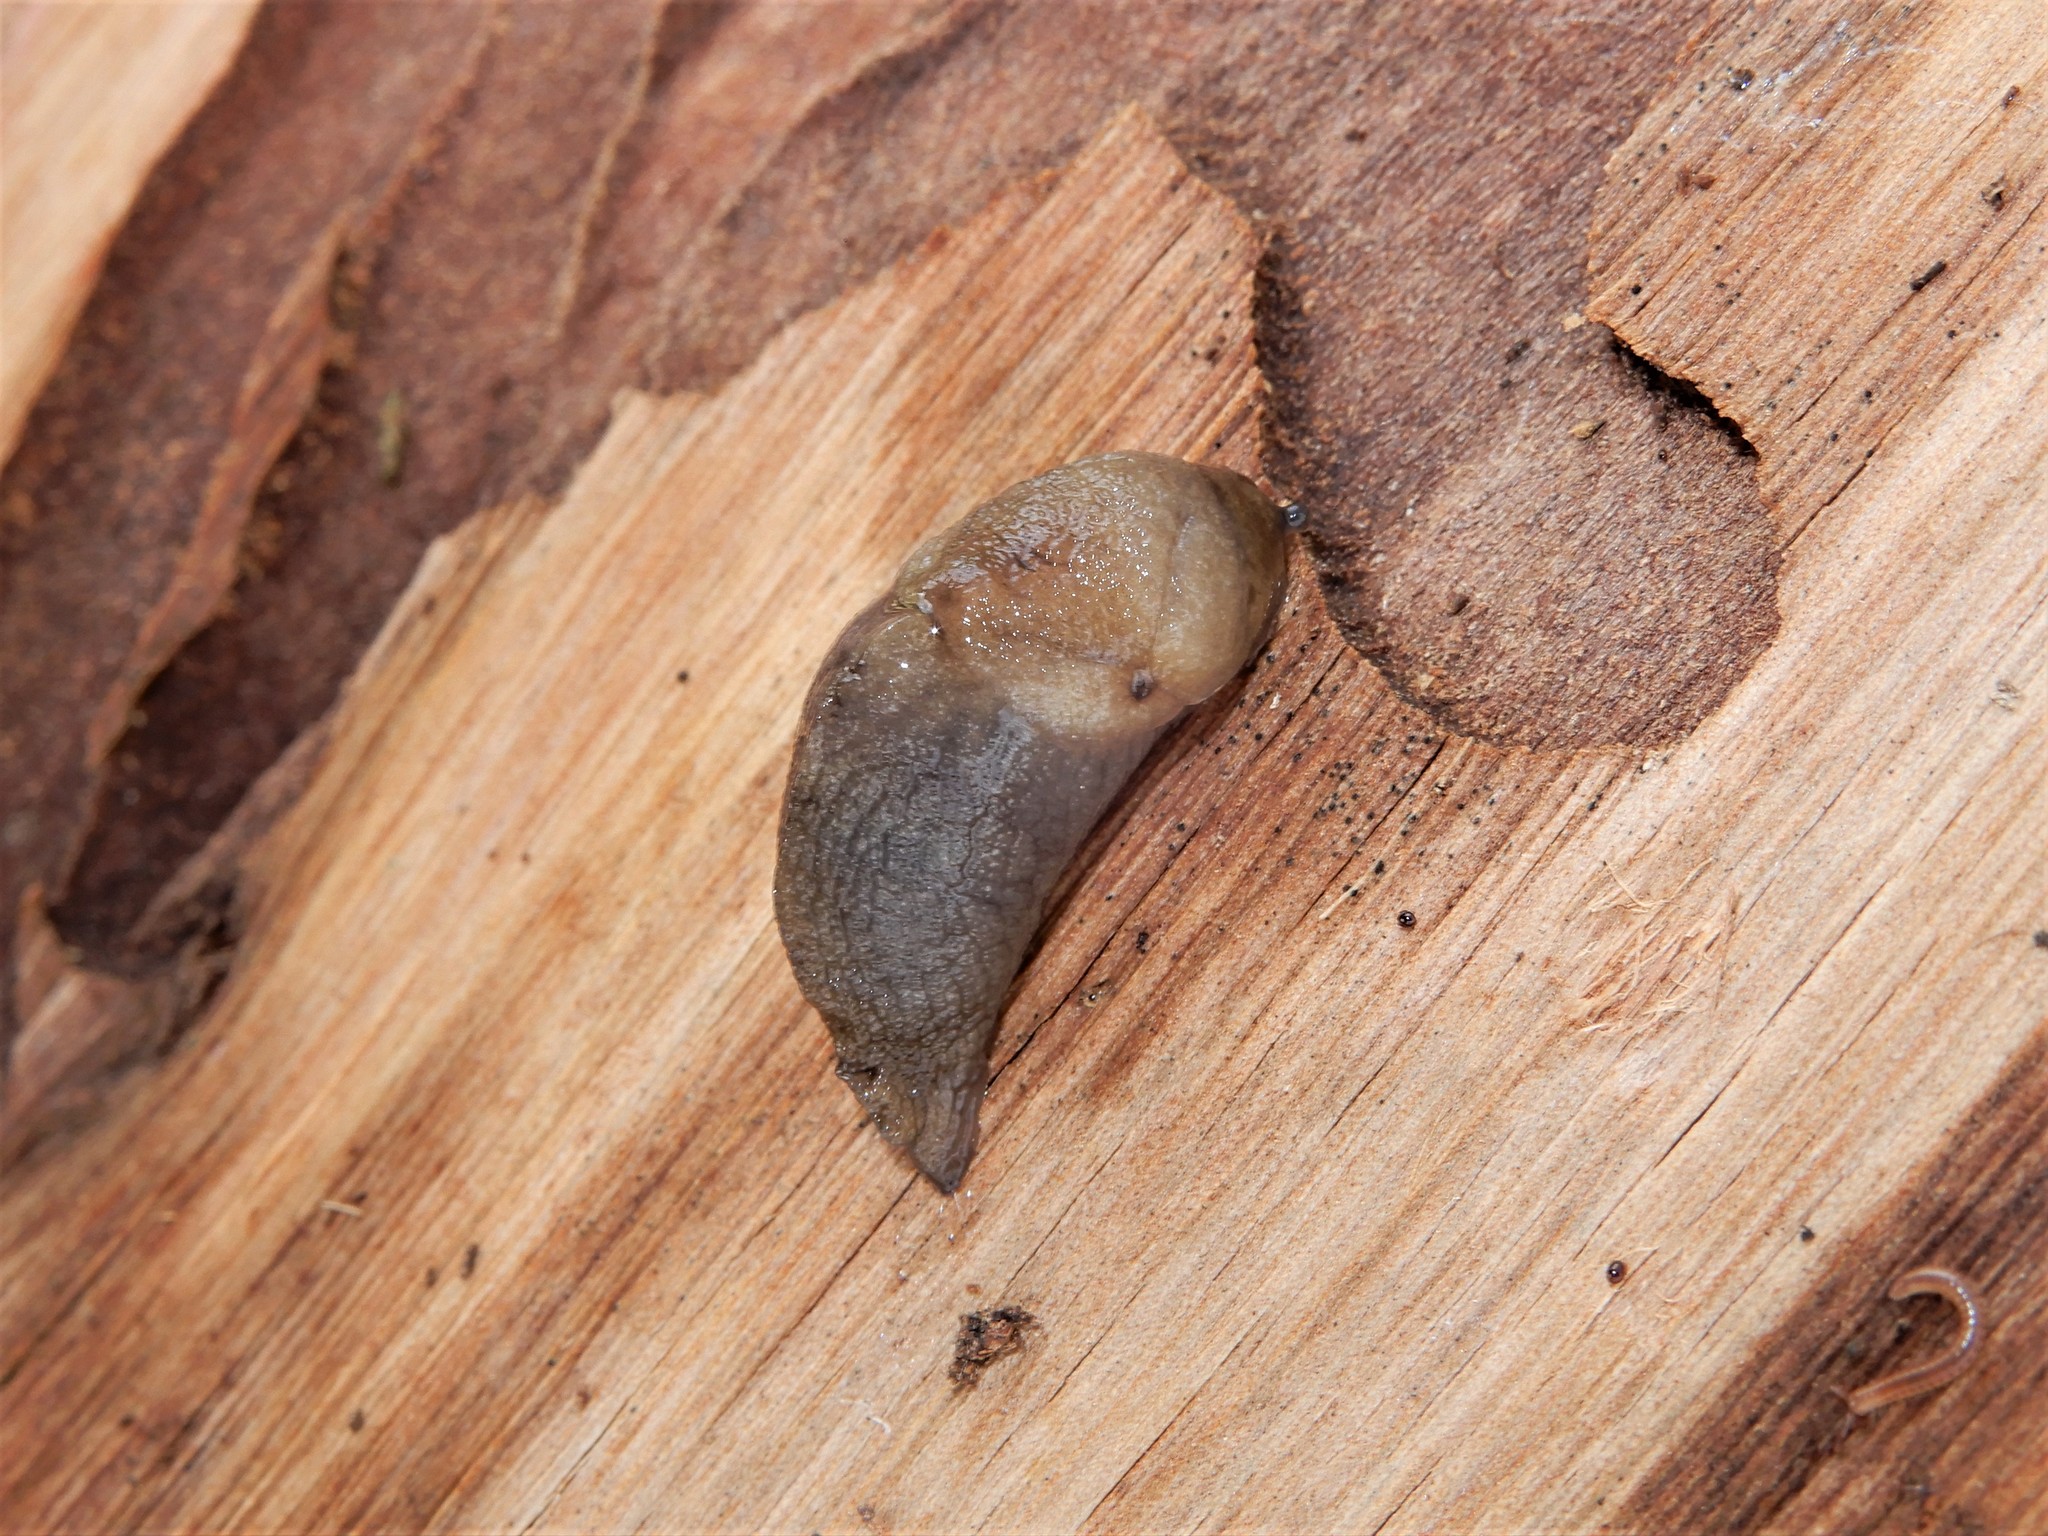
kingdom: Animalia
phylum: Mollusca
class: Gastropoda
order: Stylommatophora
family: Milacidae
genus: Milax
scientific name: Milax gagates
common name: Greenhouse slug
